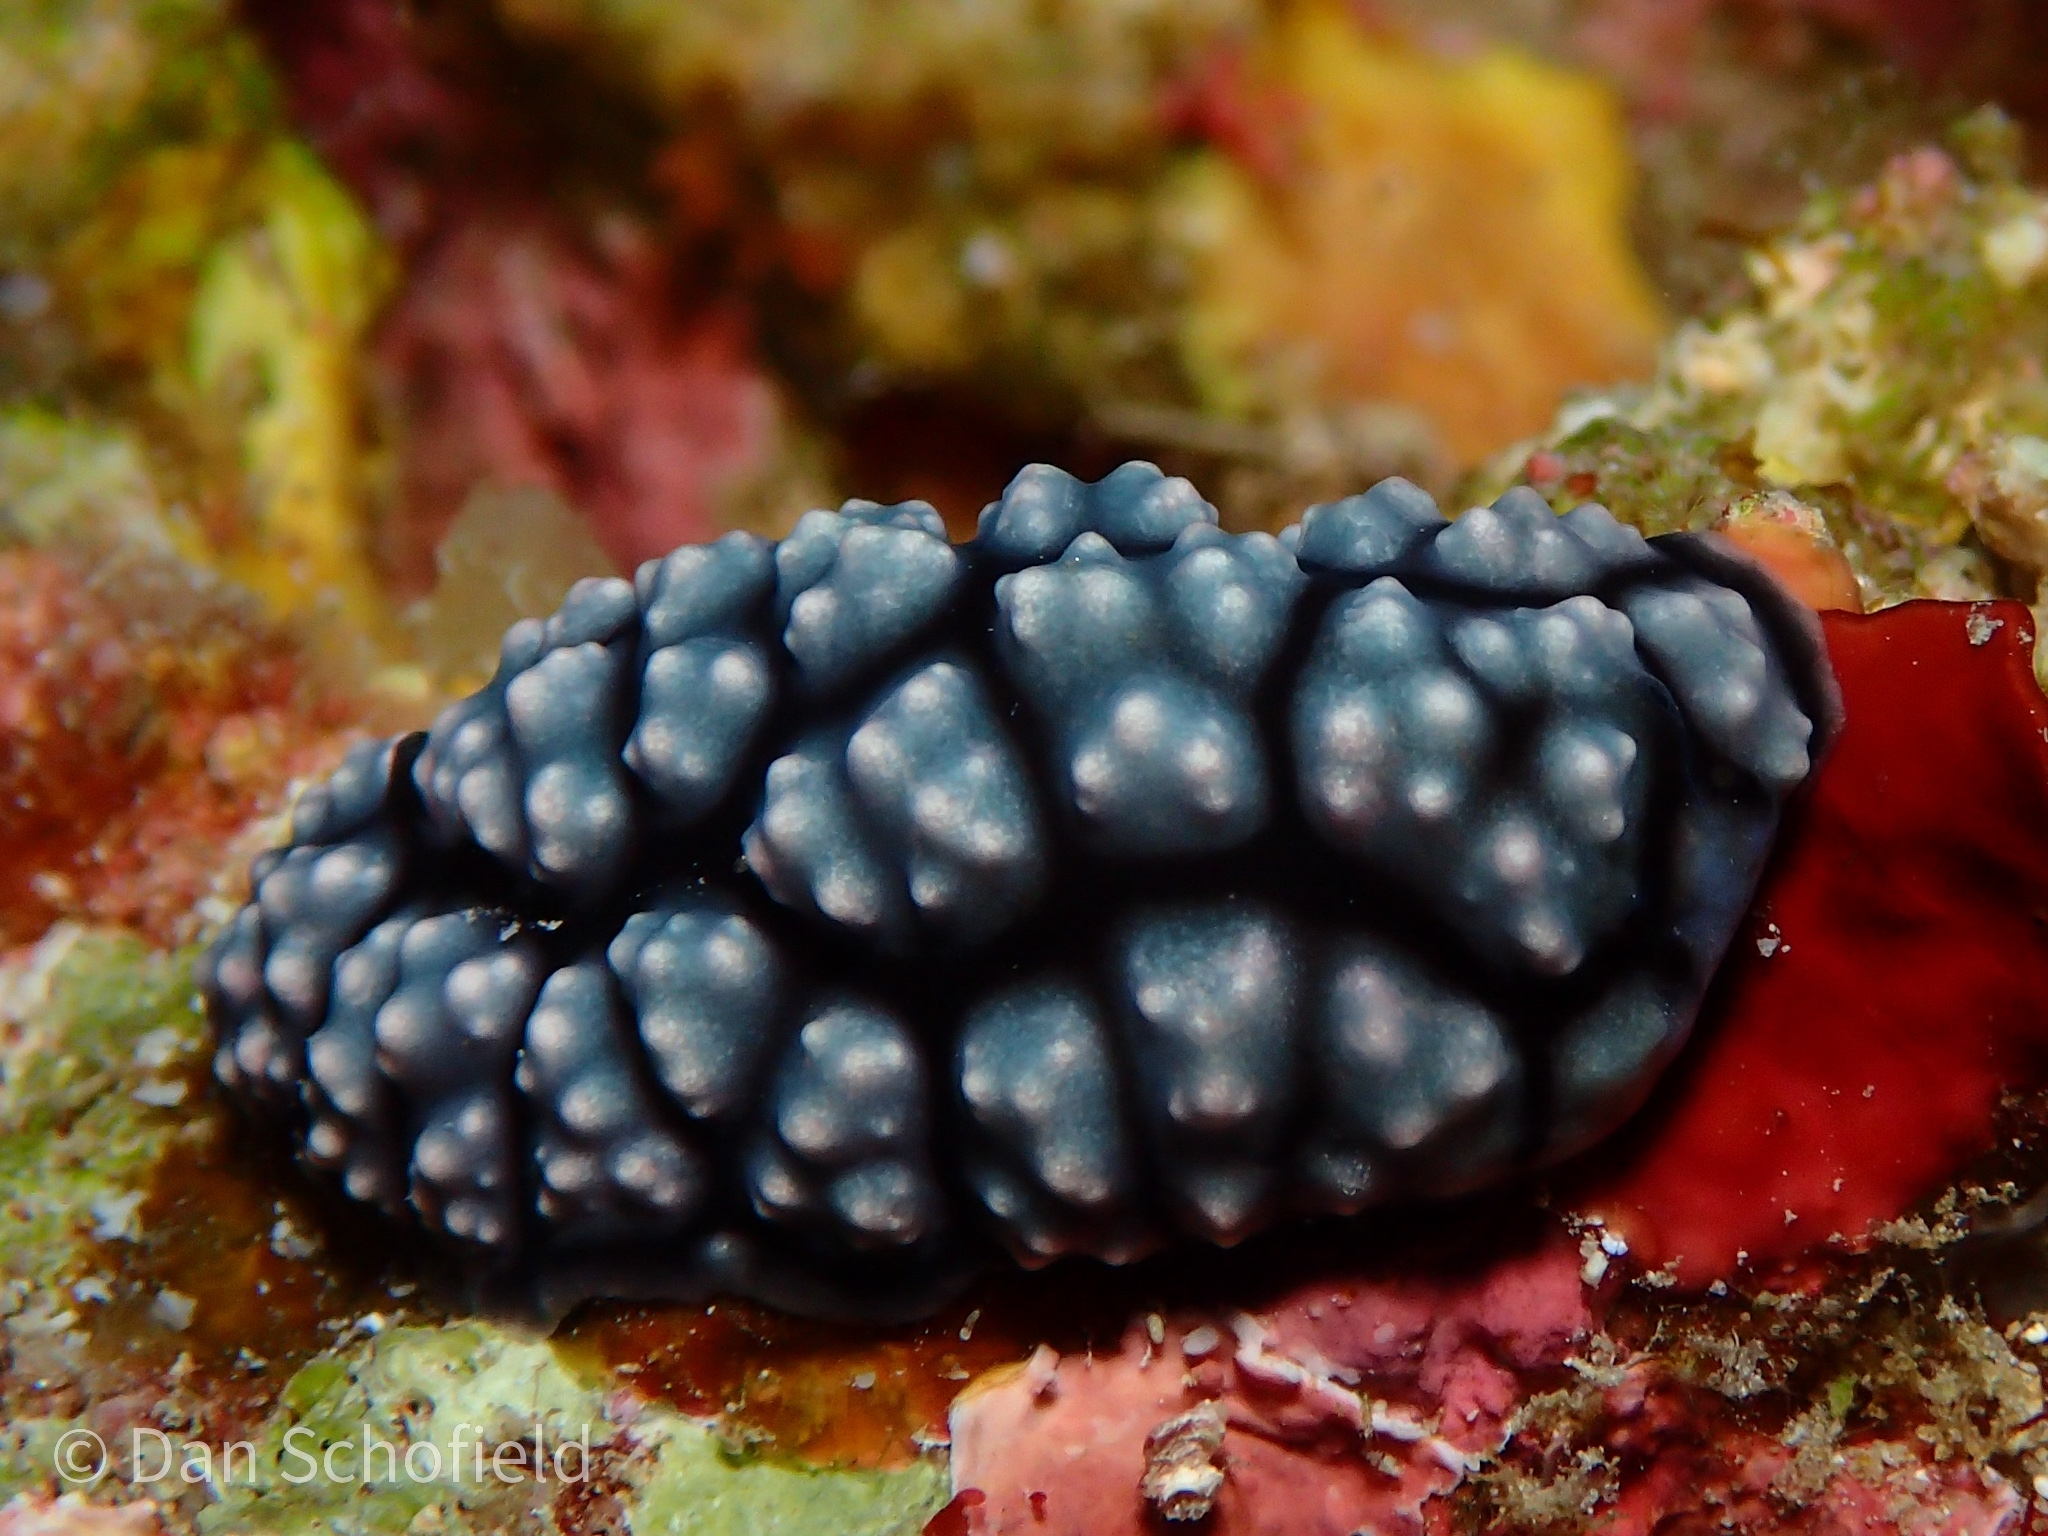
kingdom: Animalia
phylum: Mollusca
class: Gastropoda
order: Nudibranchia
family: Phyllidiidae
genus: Phyllidiella
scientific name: Phyllidiella pustulosa
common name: Pustular phyllidia
